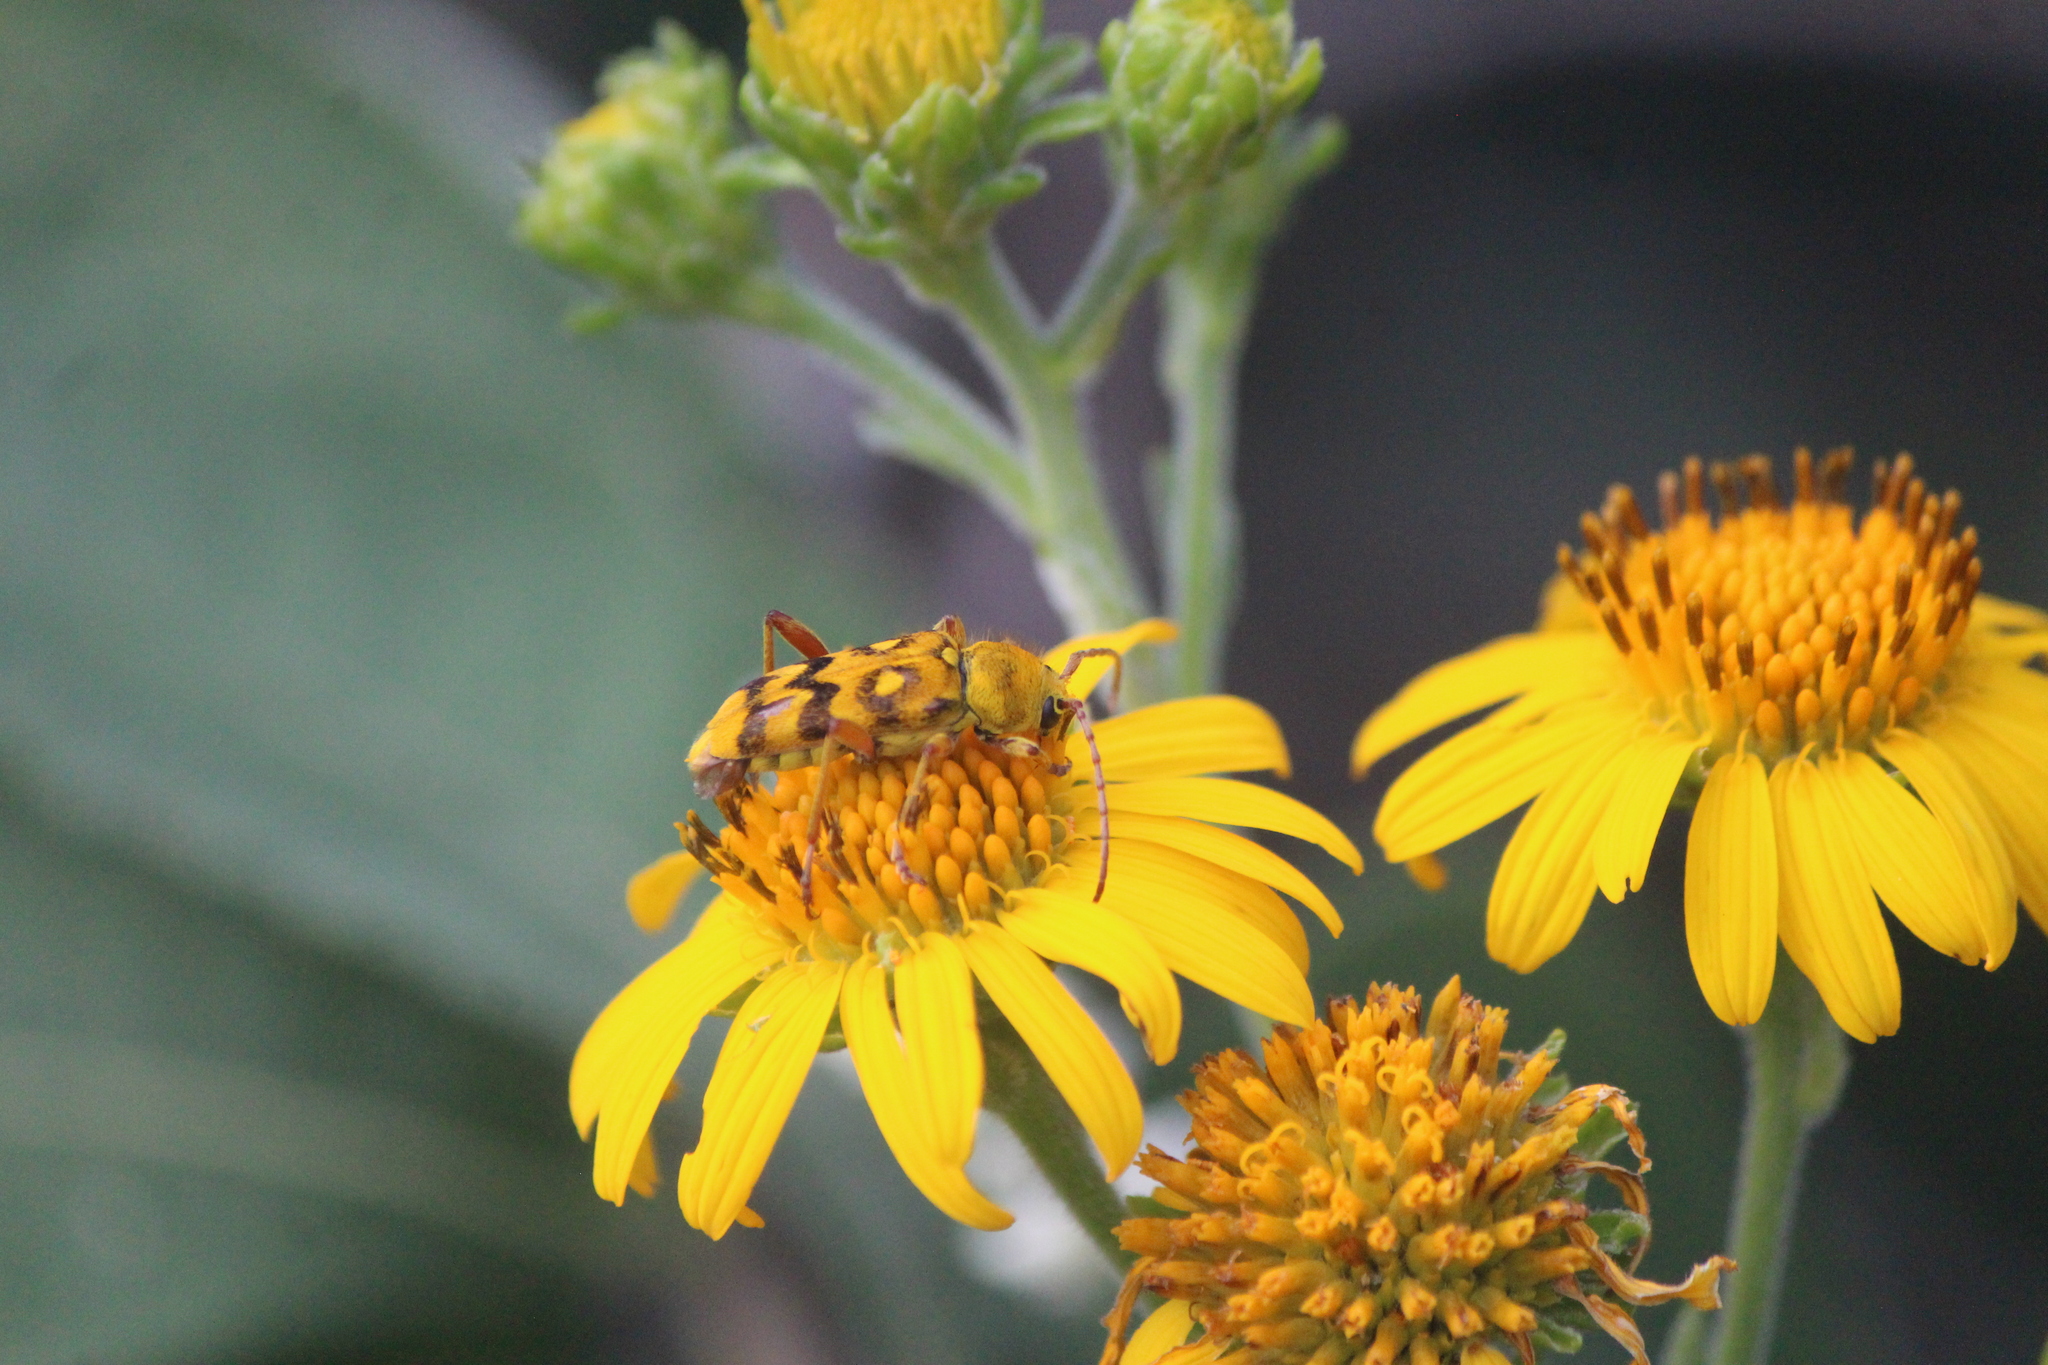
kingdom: Animalia
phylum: Arthropoda
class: Insecta
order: Coleoptera
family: Cerambycidae
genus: Ochraethes
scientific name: Ochraethes sommeri
